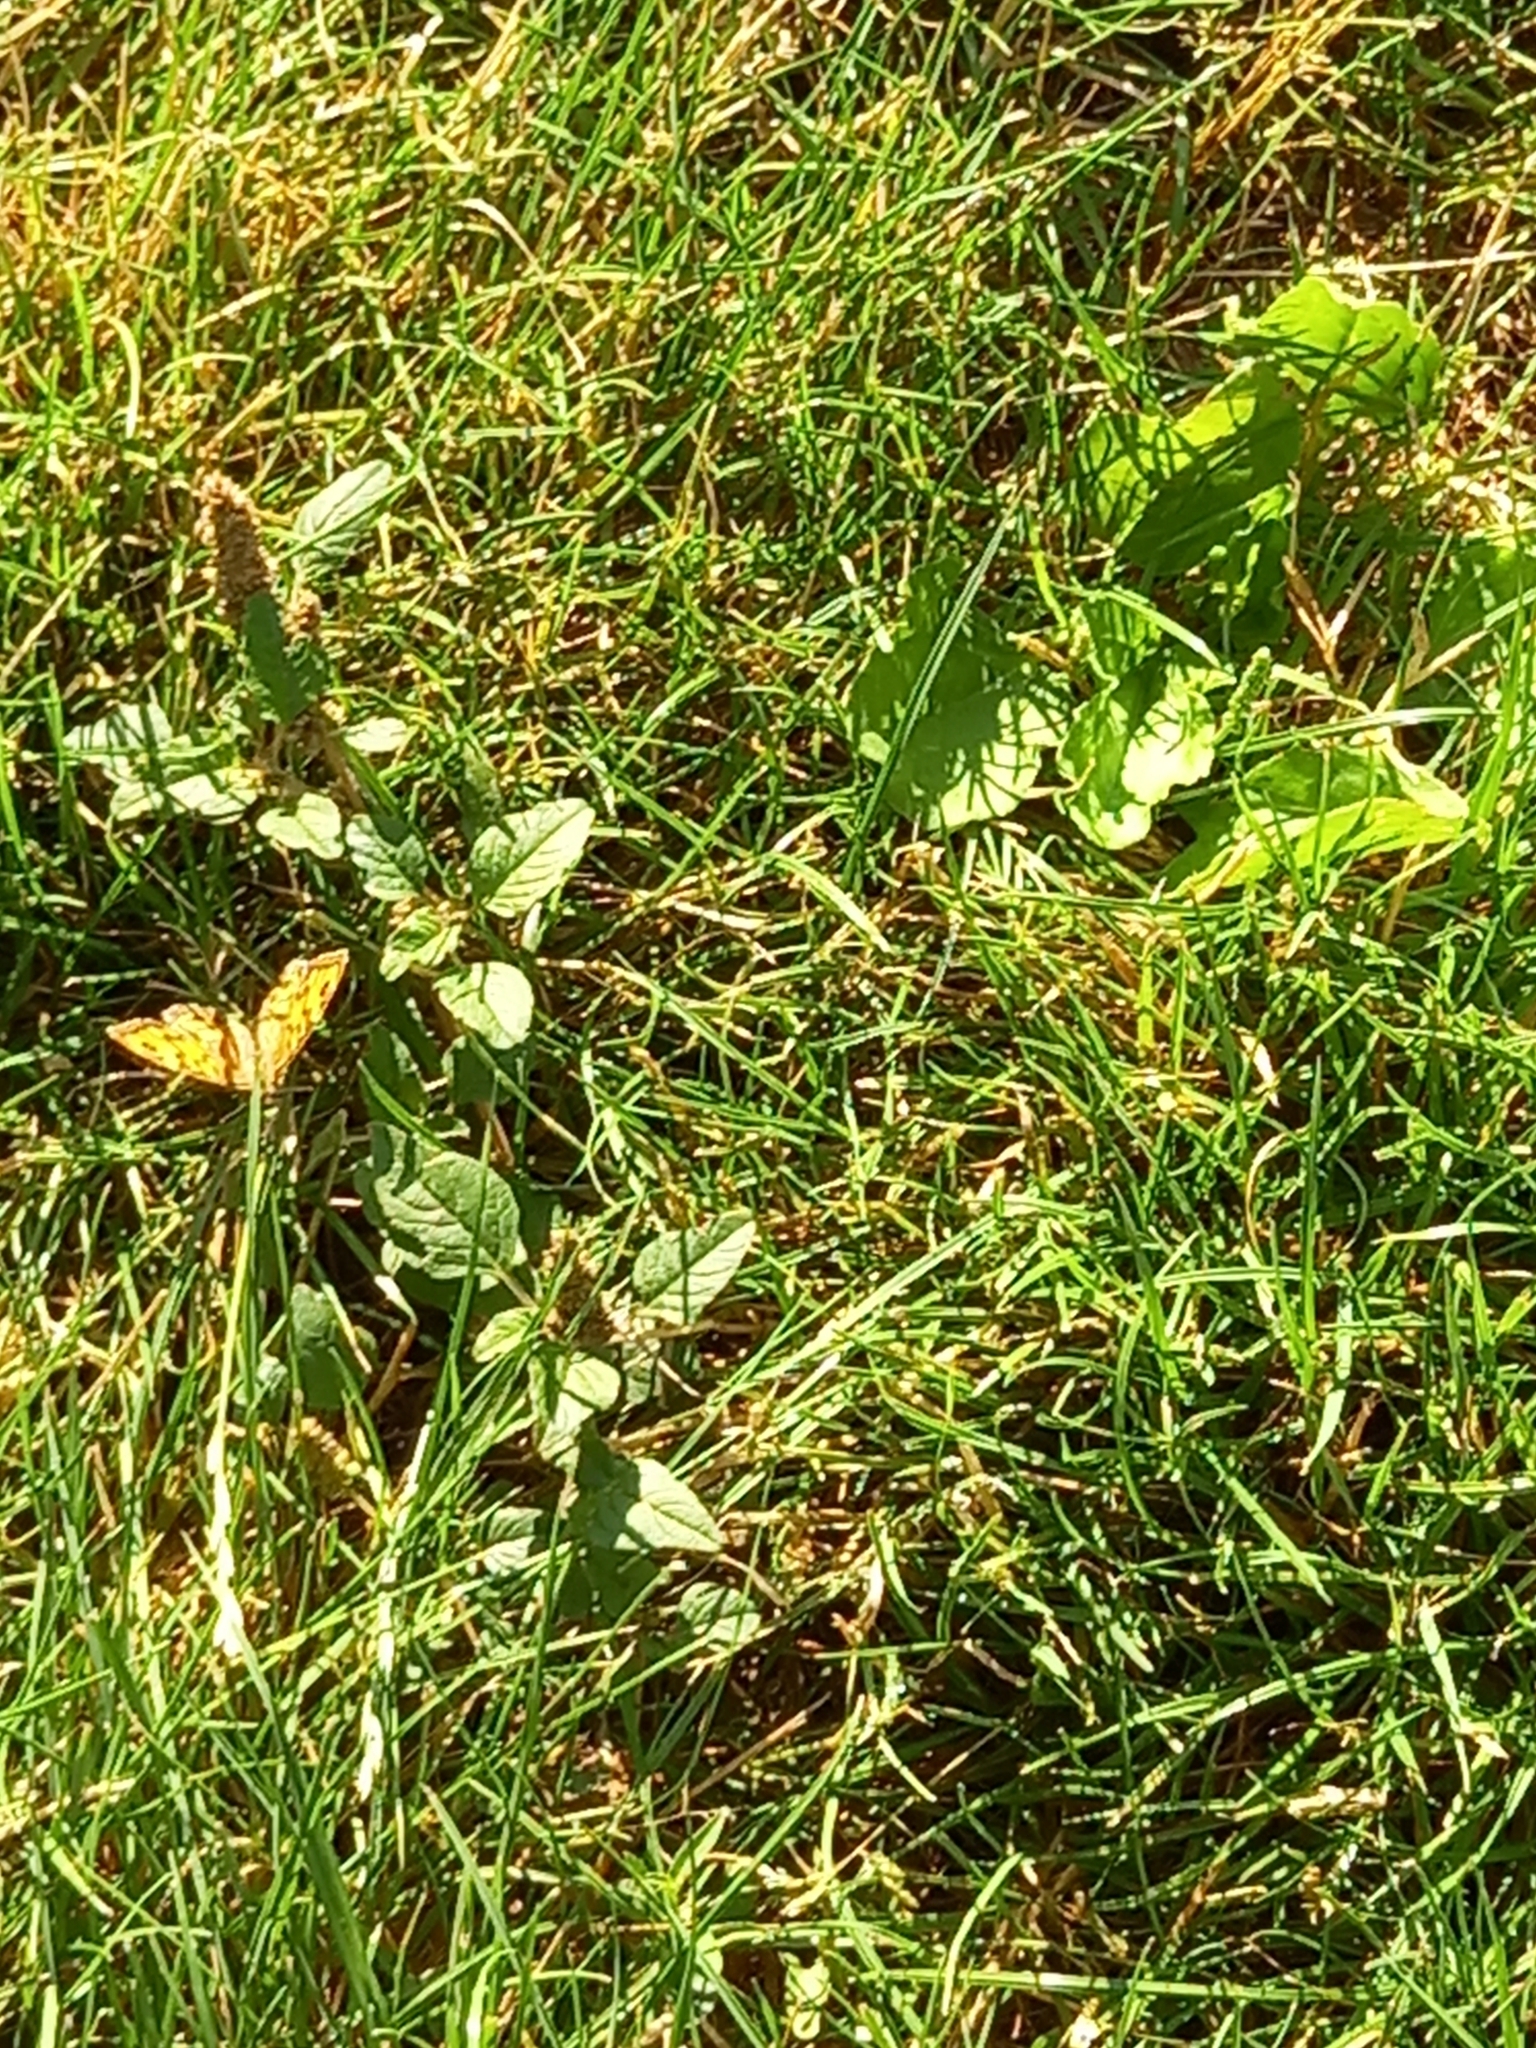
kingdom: Animalia
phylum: Arthropoda
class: Insecta
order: Lepidoptera
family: Nymphalidae
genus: Pararge
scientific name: Pararge Lasiommata megera
